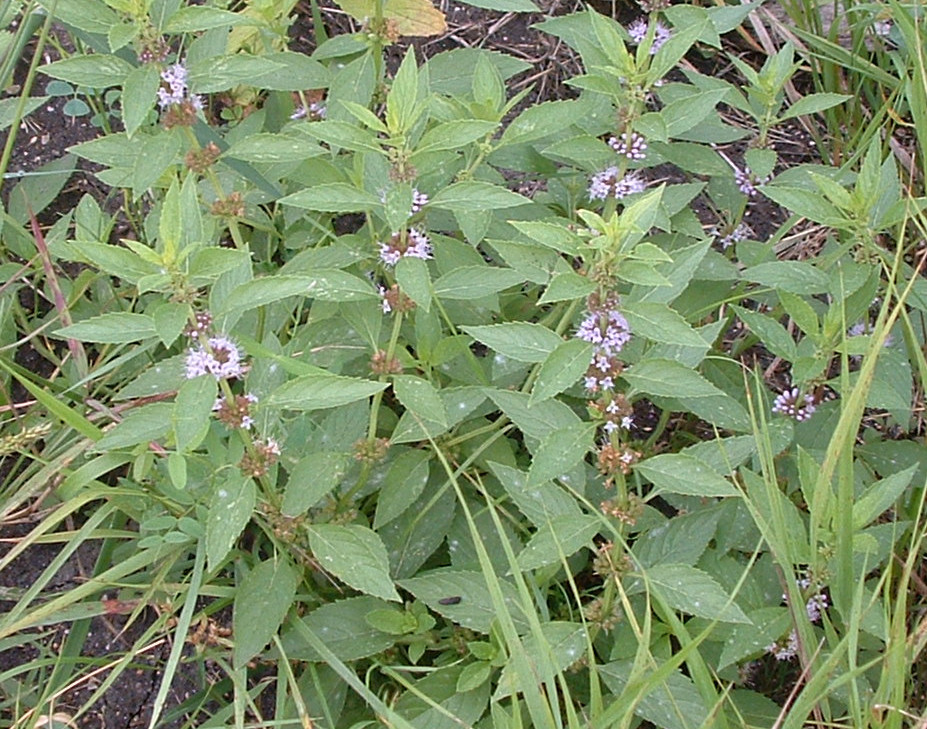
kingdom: Plantae
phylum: Tracheophyta
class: Magnoliopsida
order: Lamiales
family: Lamiaceae
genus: Mentha
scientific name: Mentha canadensis
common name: American corn mint
